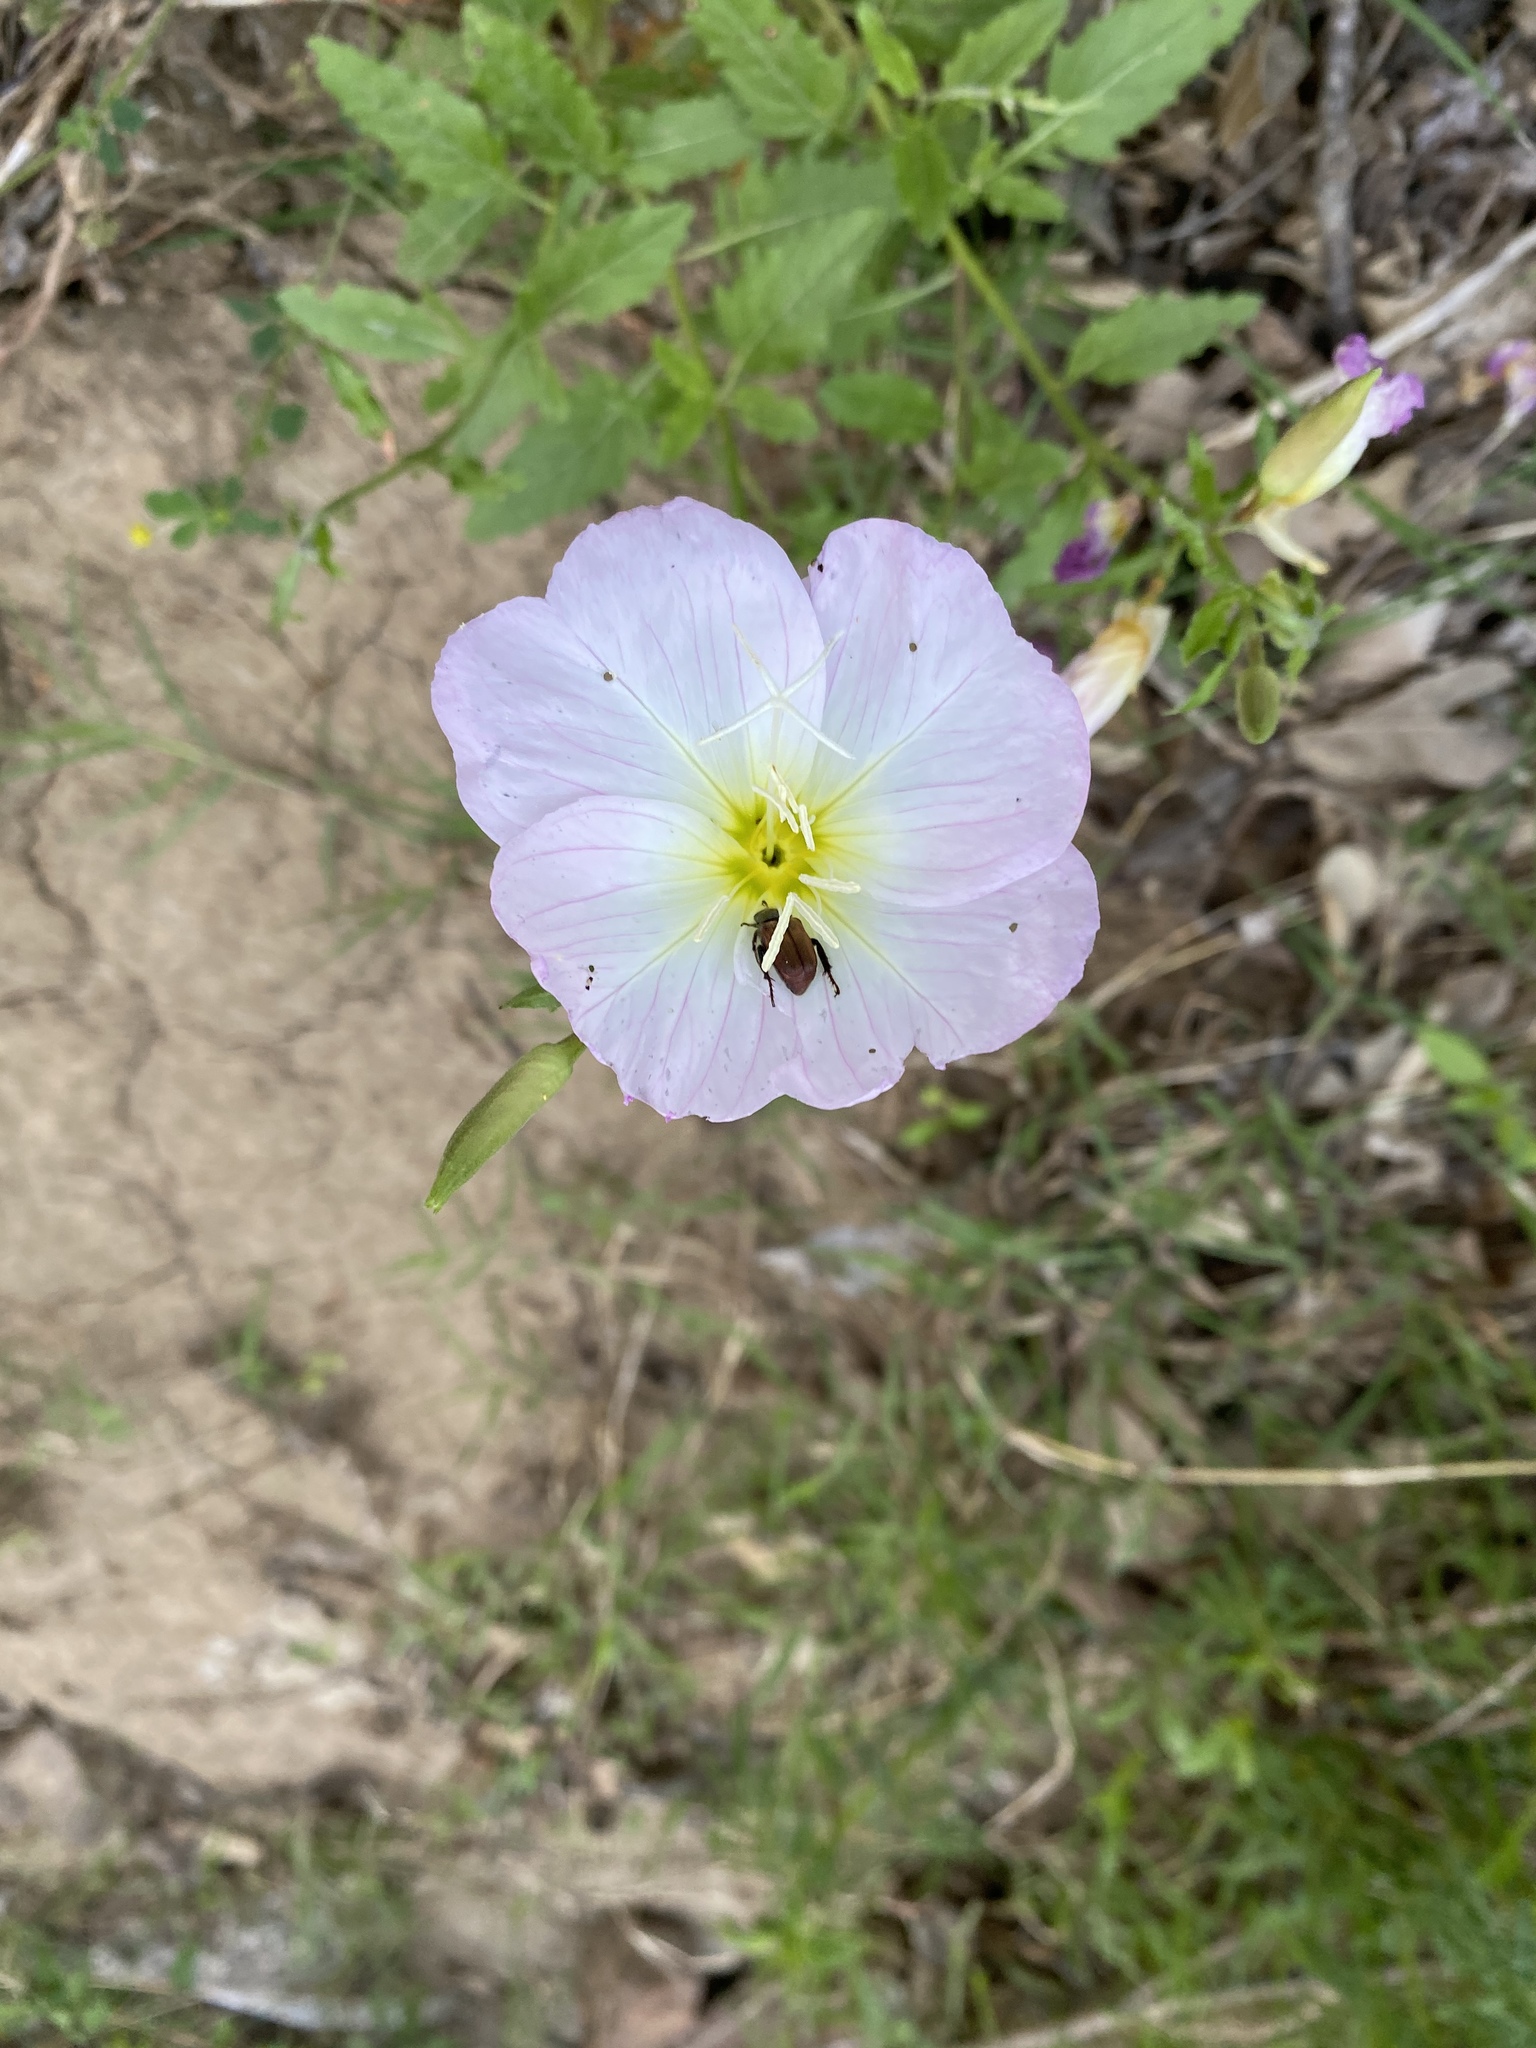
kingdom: Plantae
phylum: Tracheophyta
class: Magnoliopsida
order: Myrtales
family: Onagraceae
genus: Oenothera
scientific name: Oenothera speciosa
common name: White evening-primrose
